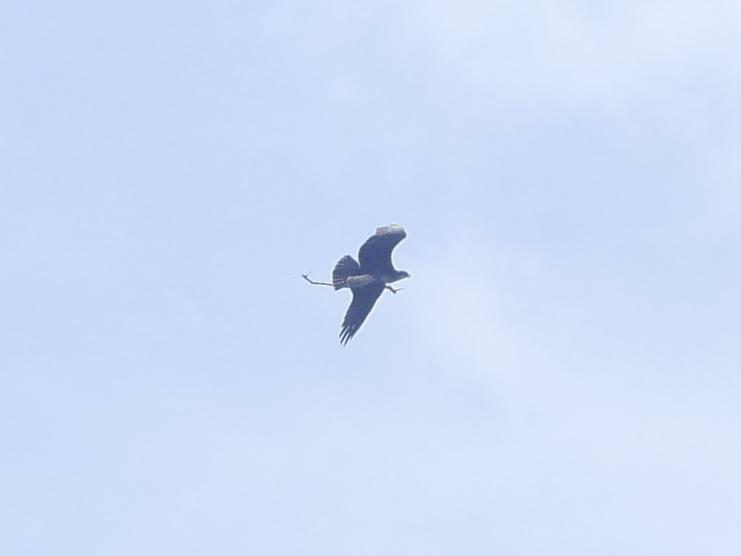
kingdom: Animalia
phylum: Chordata
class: Aves
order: Accipitriformes
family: Pandionidae
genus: Pandion
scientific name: Pandion haliaetus
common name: Osprey
